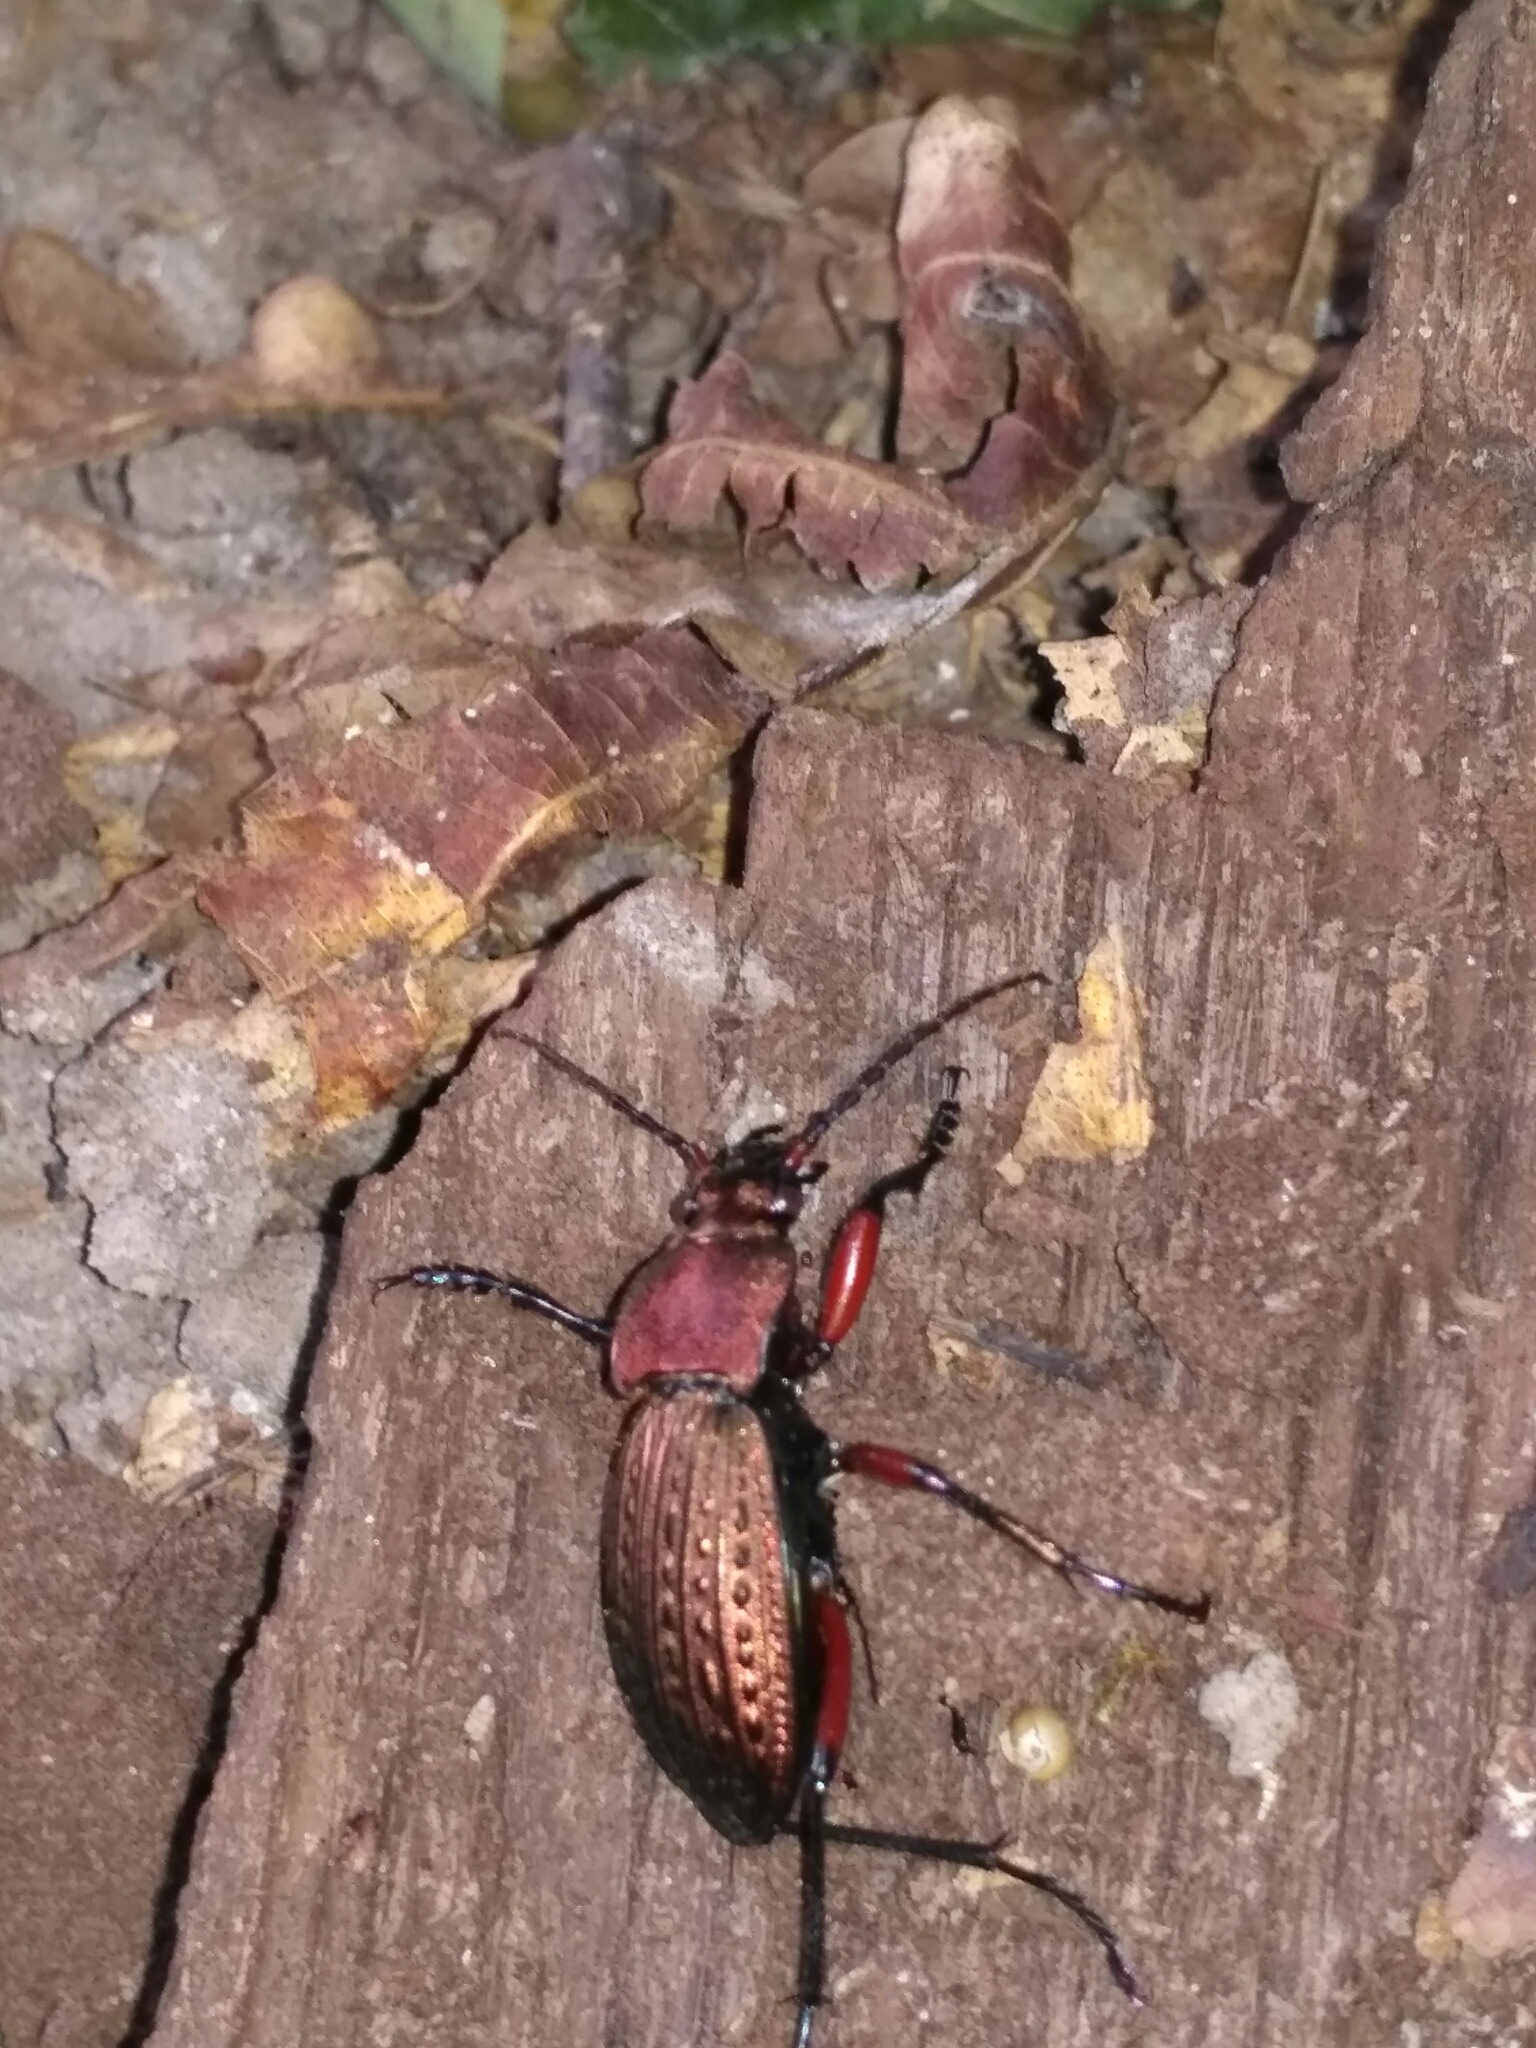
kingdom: Animalia
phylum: Arthropoda
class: Insecta
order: Coleoptera
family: Carabidae
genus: Carabus
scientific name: Carabus cancellatus
